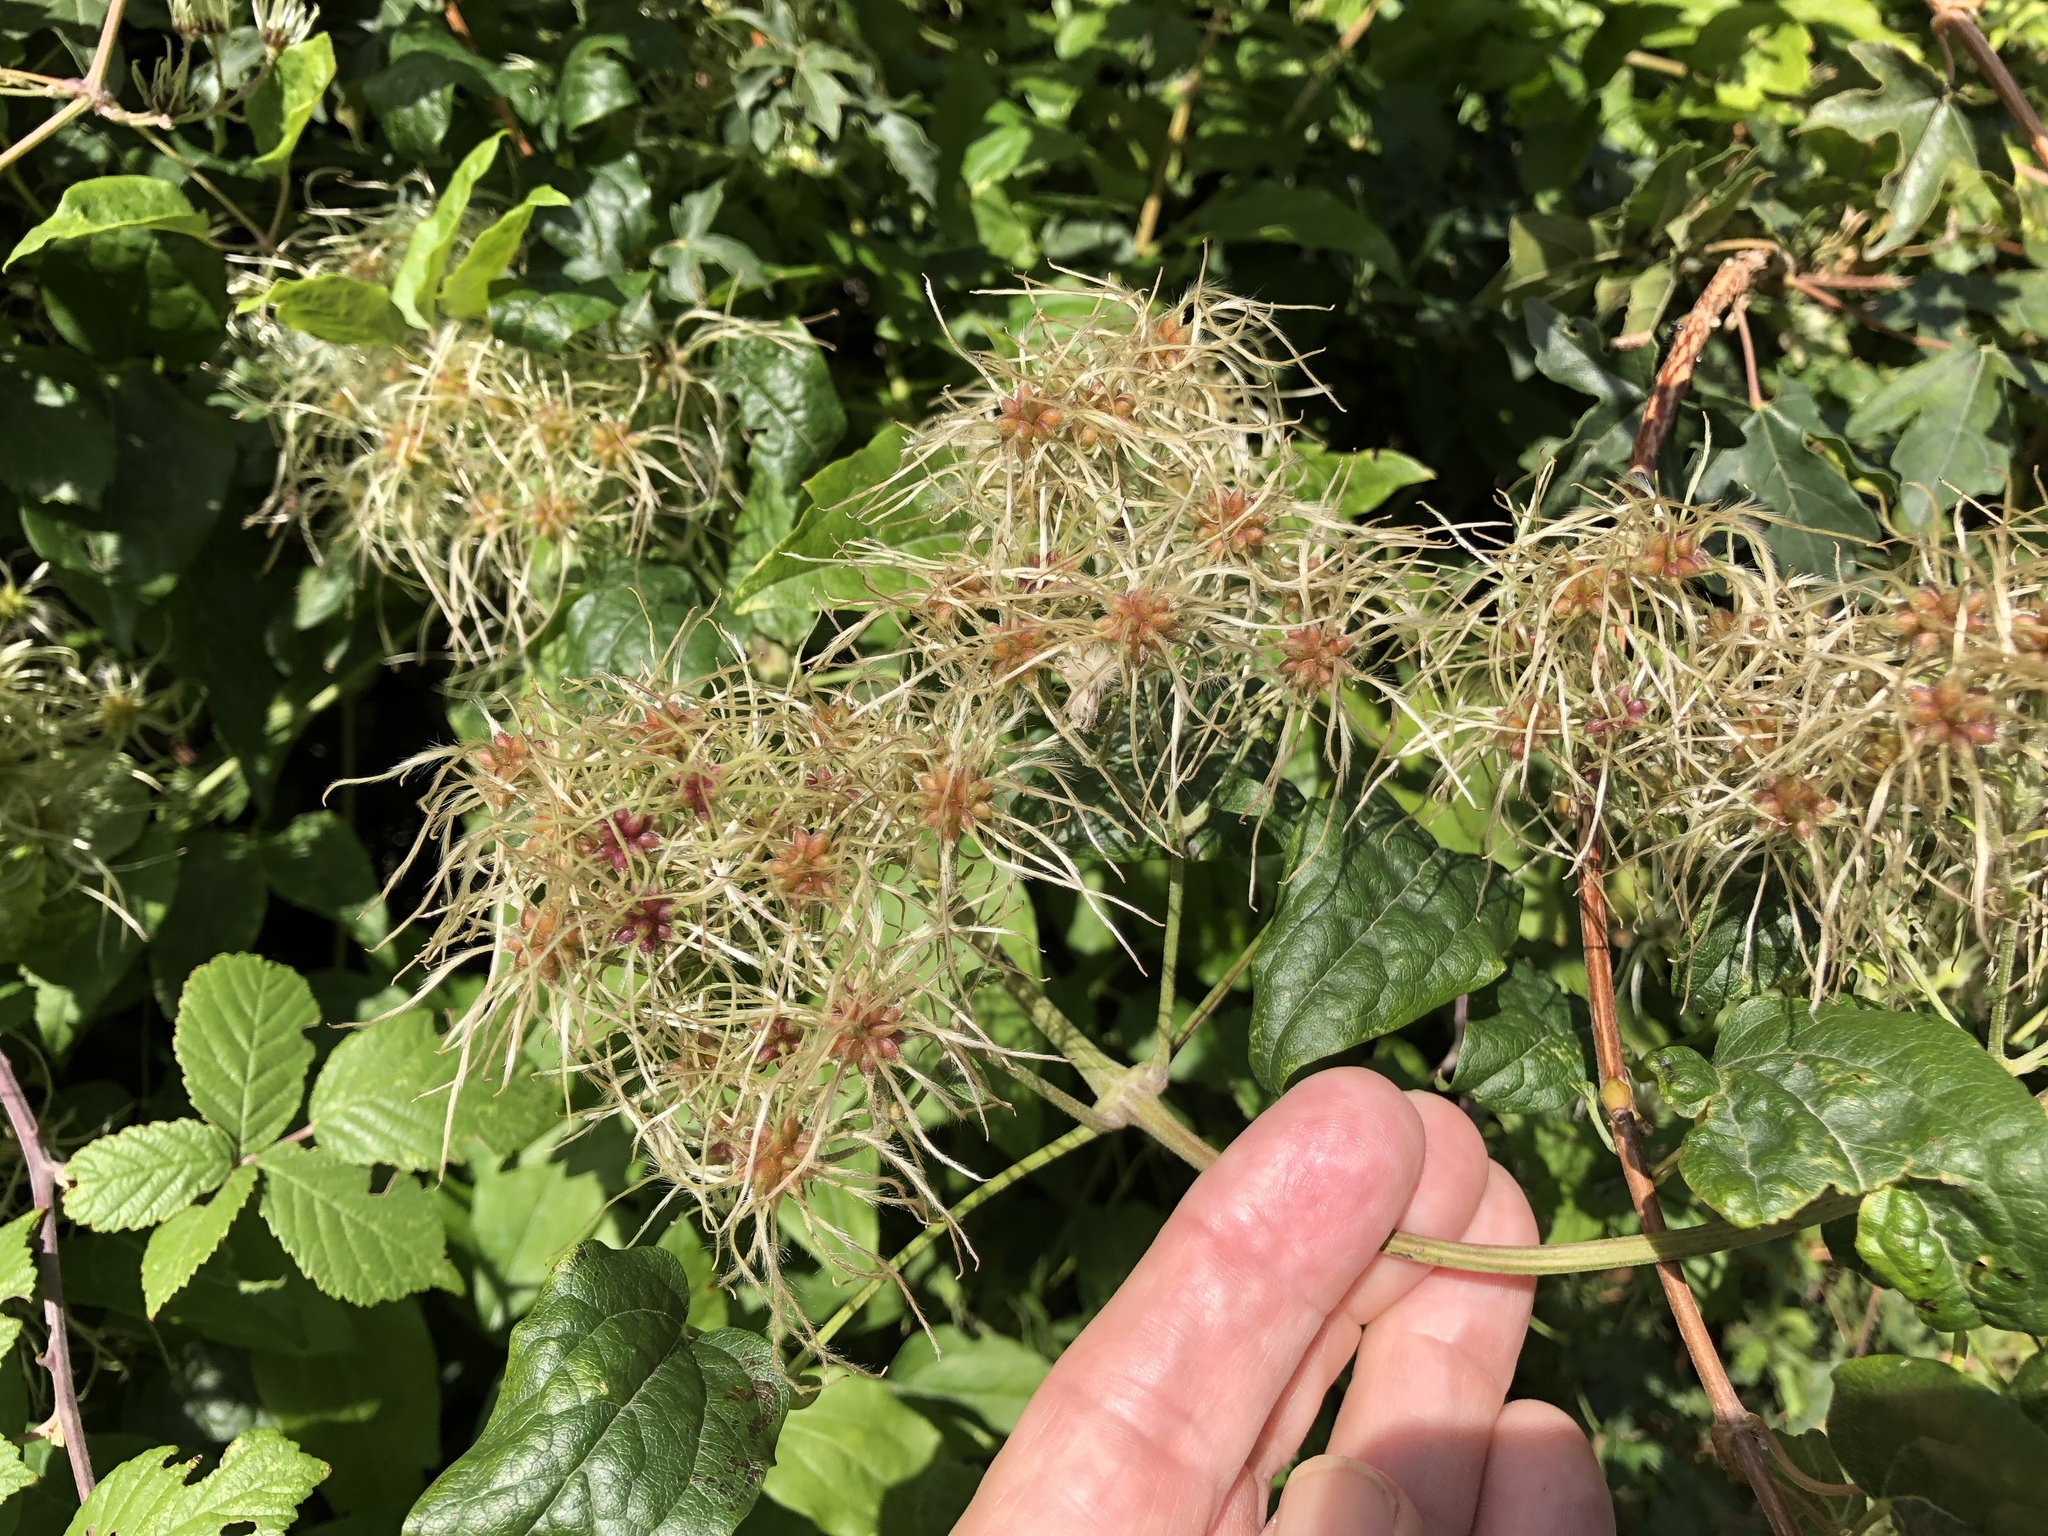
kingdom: Plantae
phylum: Tracheophyta
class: Magnoliopsida
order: Ranunculales
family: Ranunculaceae
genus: Clematis
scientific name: Clematis vitalba
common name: Evergreen clematis
